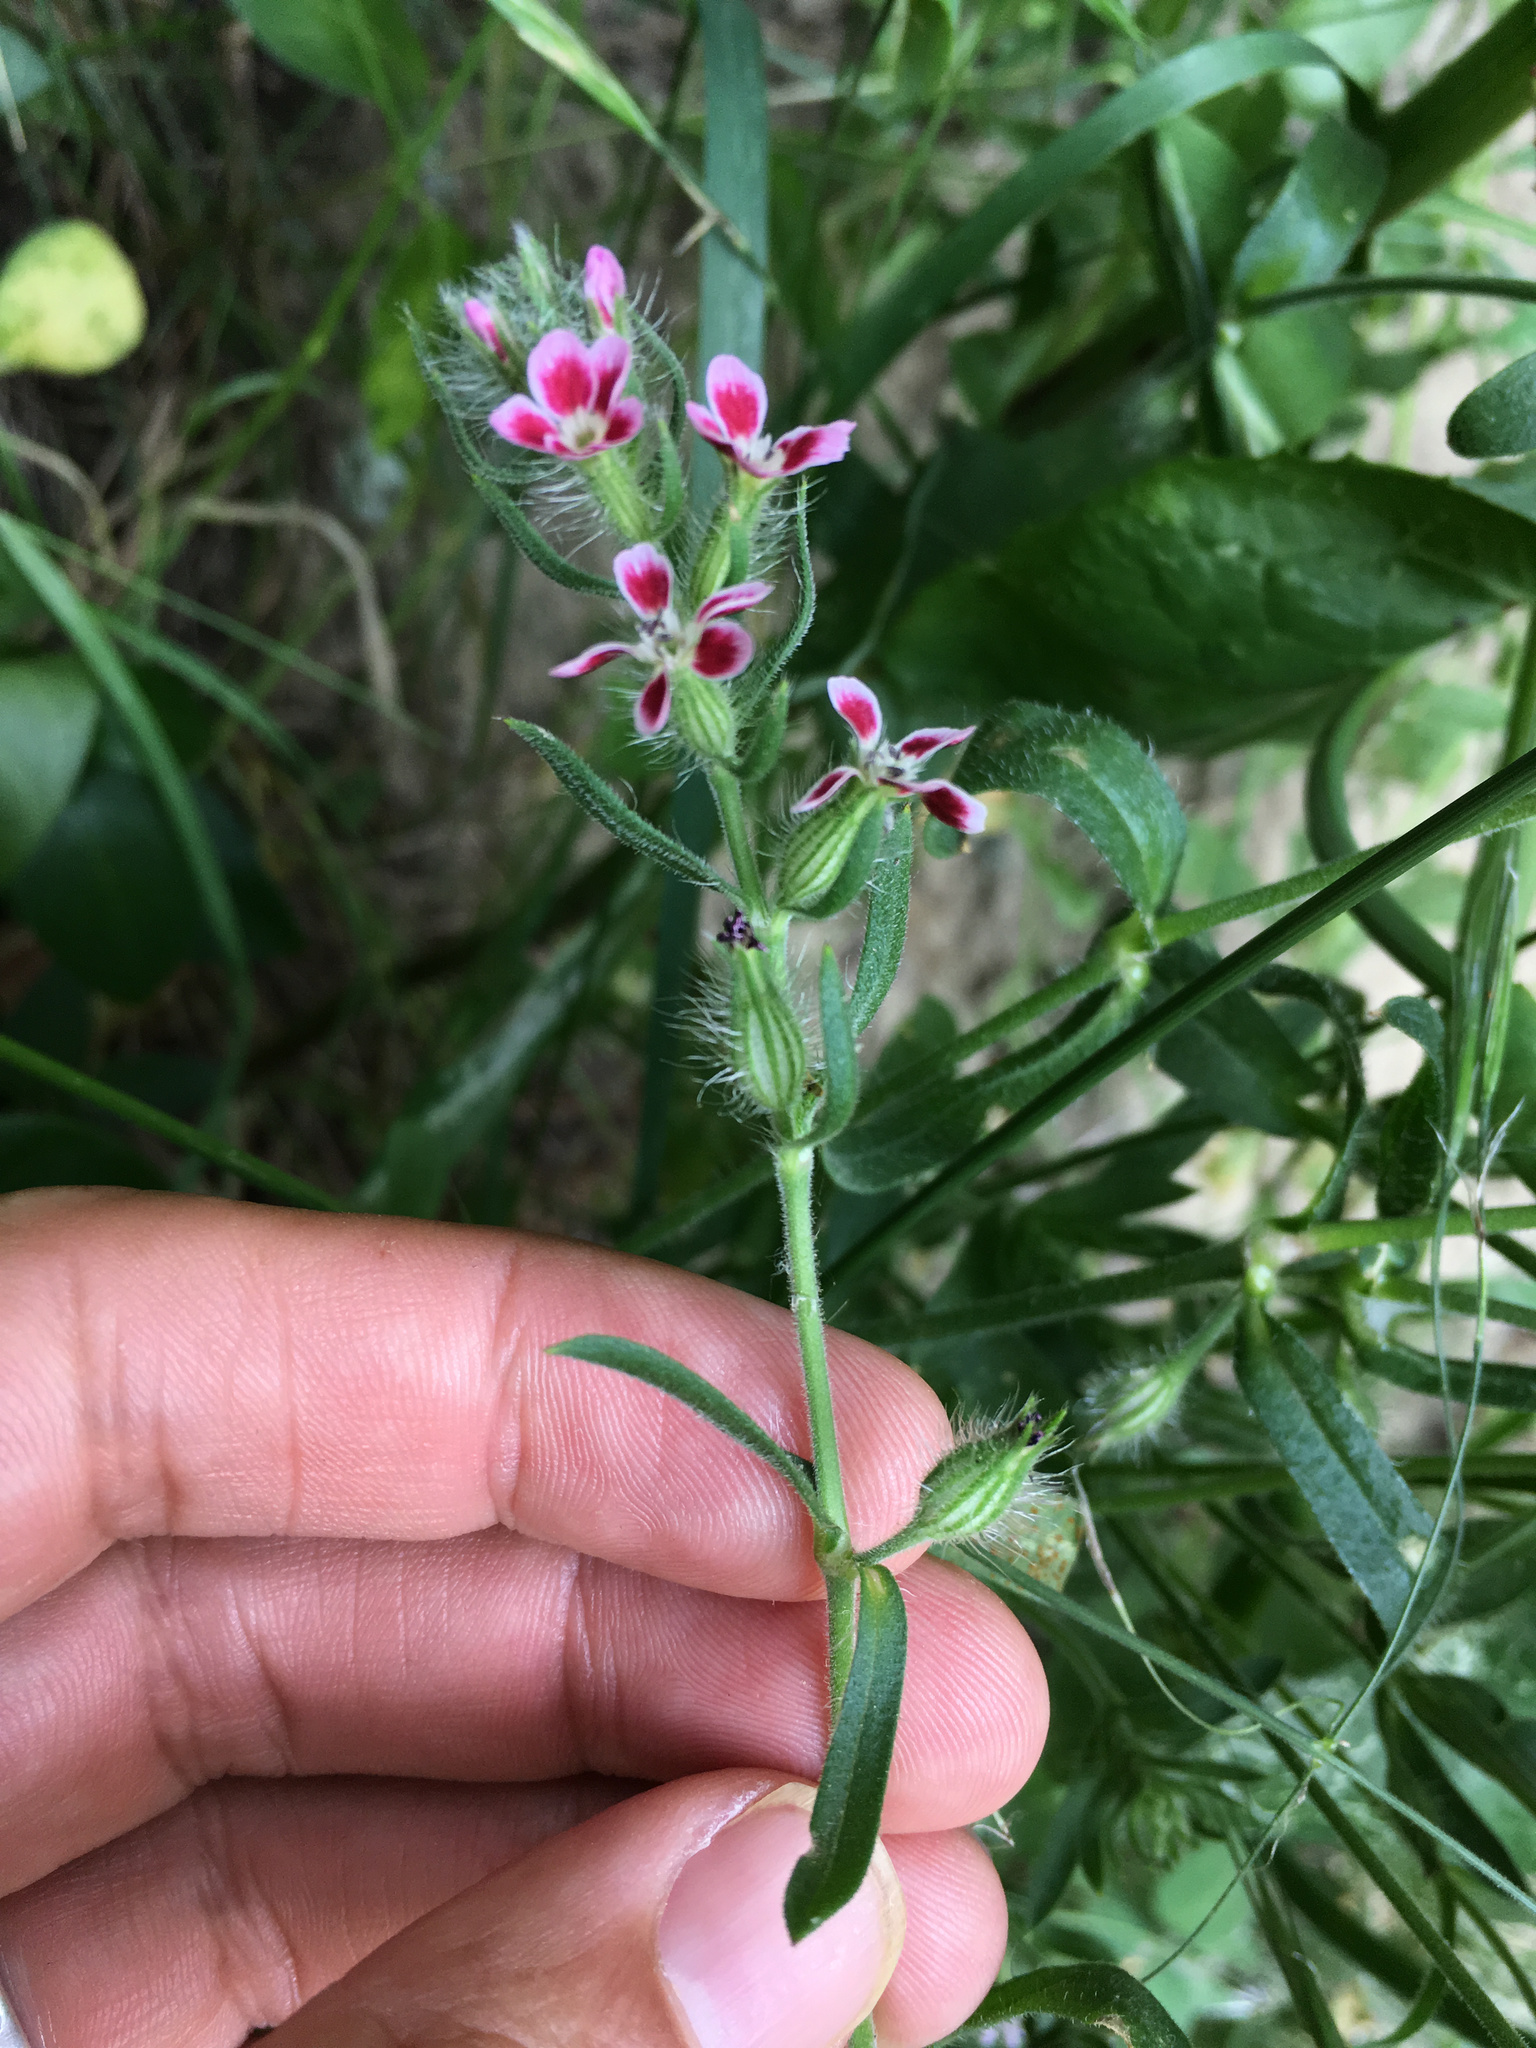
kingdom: Plantae
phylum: Tracheophyta
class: Magnoliopsida
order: Caryophyllales
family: Caryophyllaceae
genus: Silene
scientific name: Silene gallica
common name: Small-flowered catchfly
